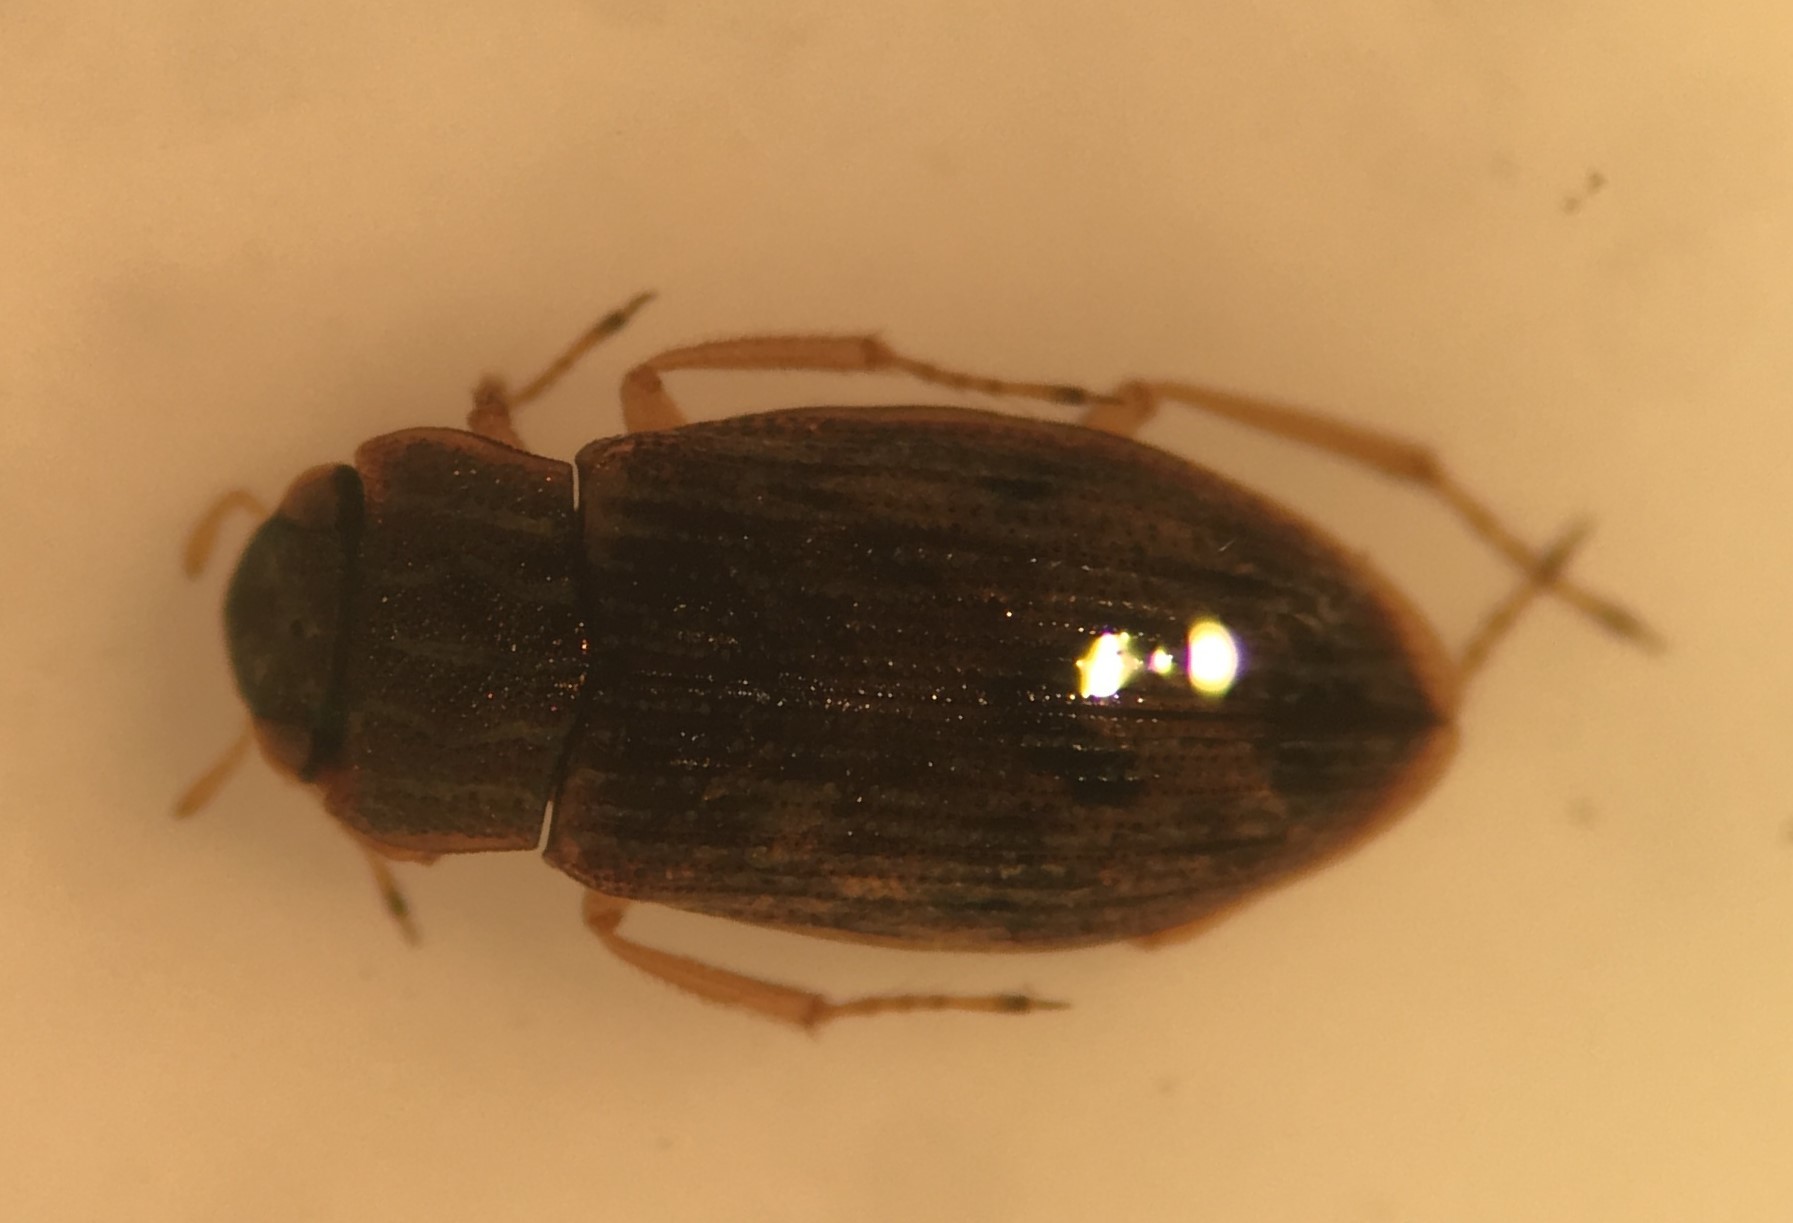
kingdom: Animalia
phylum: Arthropoda
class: Insecta
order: Coleoptera
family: Helophoridae
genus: Helophorus
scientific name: Helophorus marginicollis
